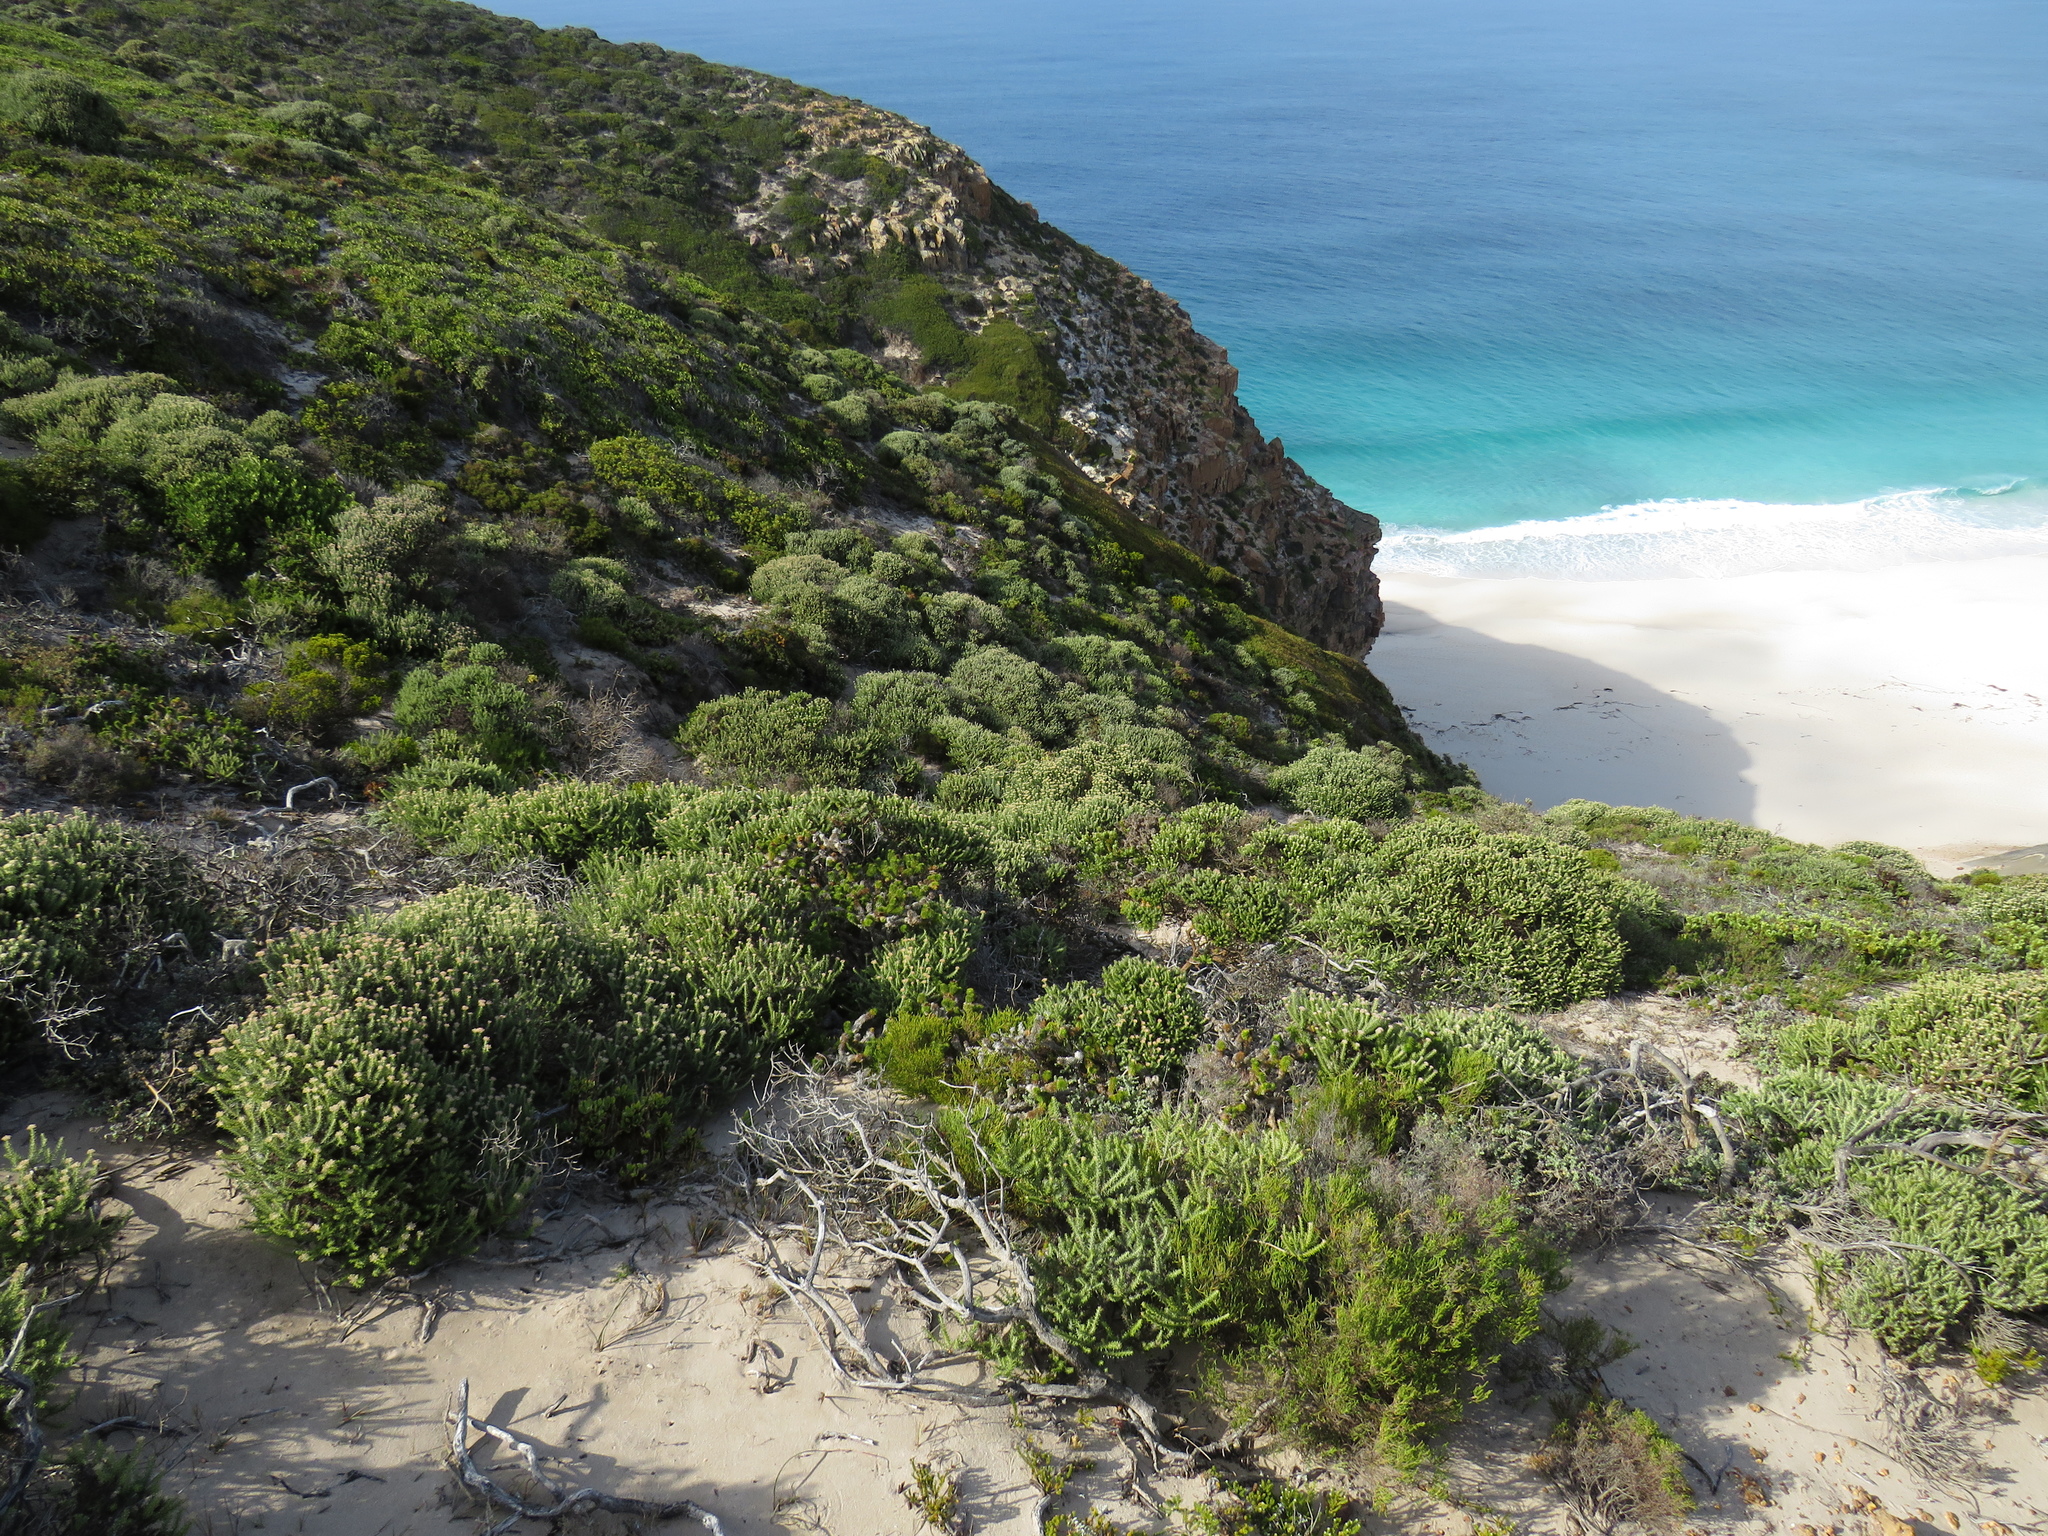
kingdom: Plantae
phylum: Tracheophyta
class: Magnoliopsida
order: Asterales
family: Asteraceae
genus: Metalasia
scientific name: Metalasia muricata
